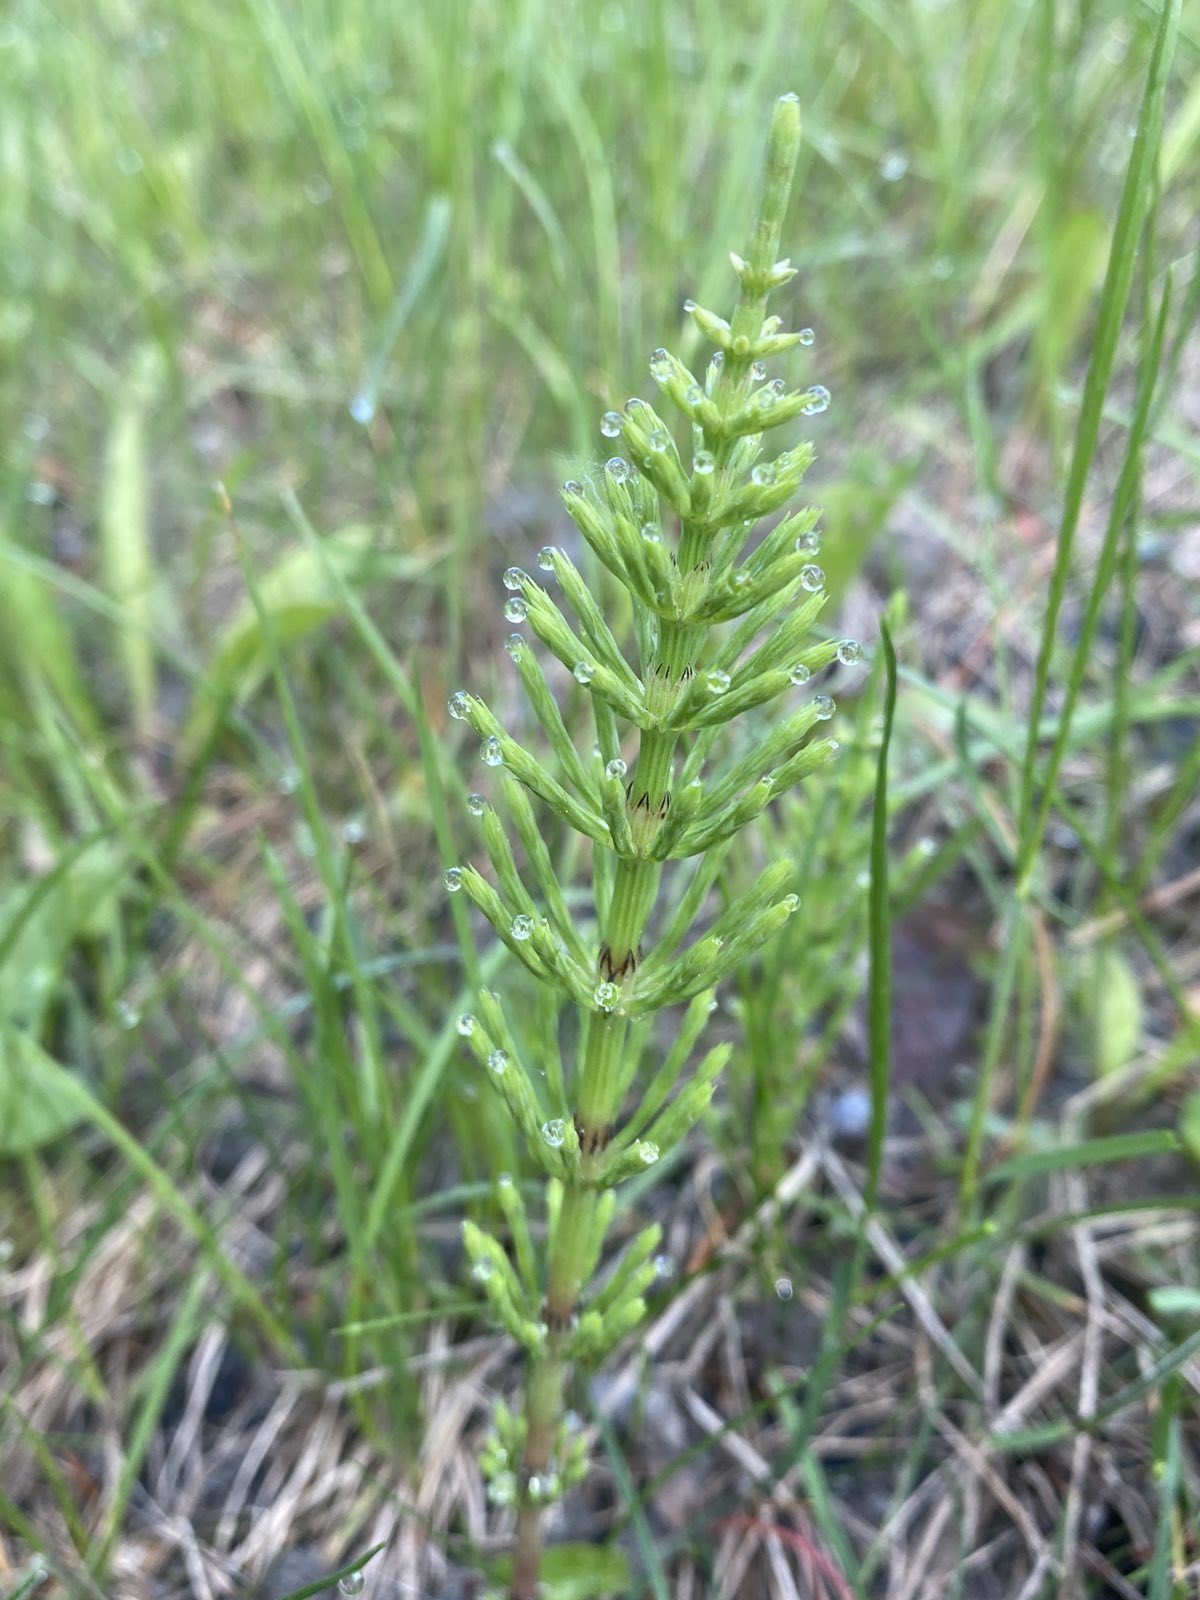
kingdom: Plantae
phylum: Tracheophyta
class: Polypodiopsida
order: Equisetales
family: Equisetaceae
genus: Equisetum
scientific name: Equisetum arvense
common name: Field horsetail
